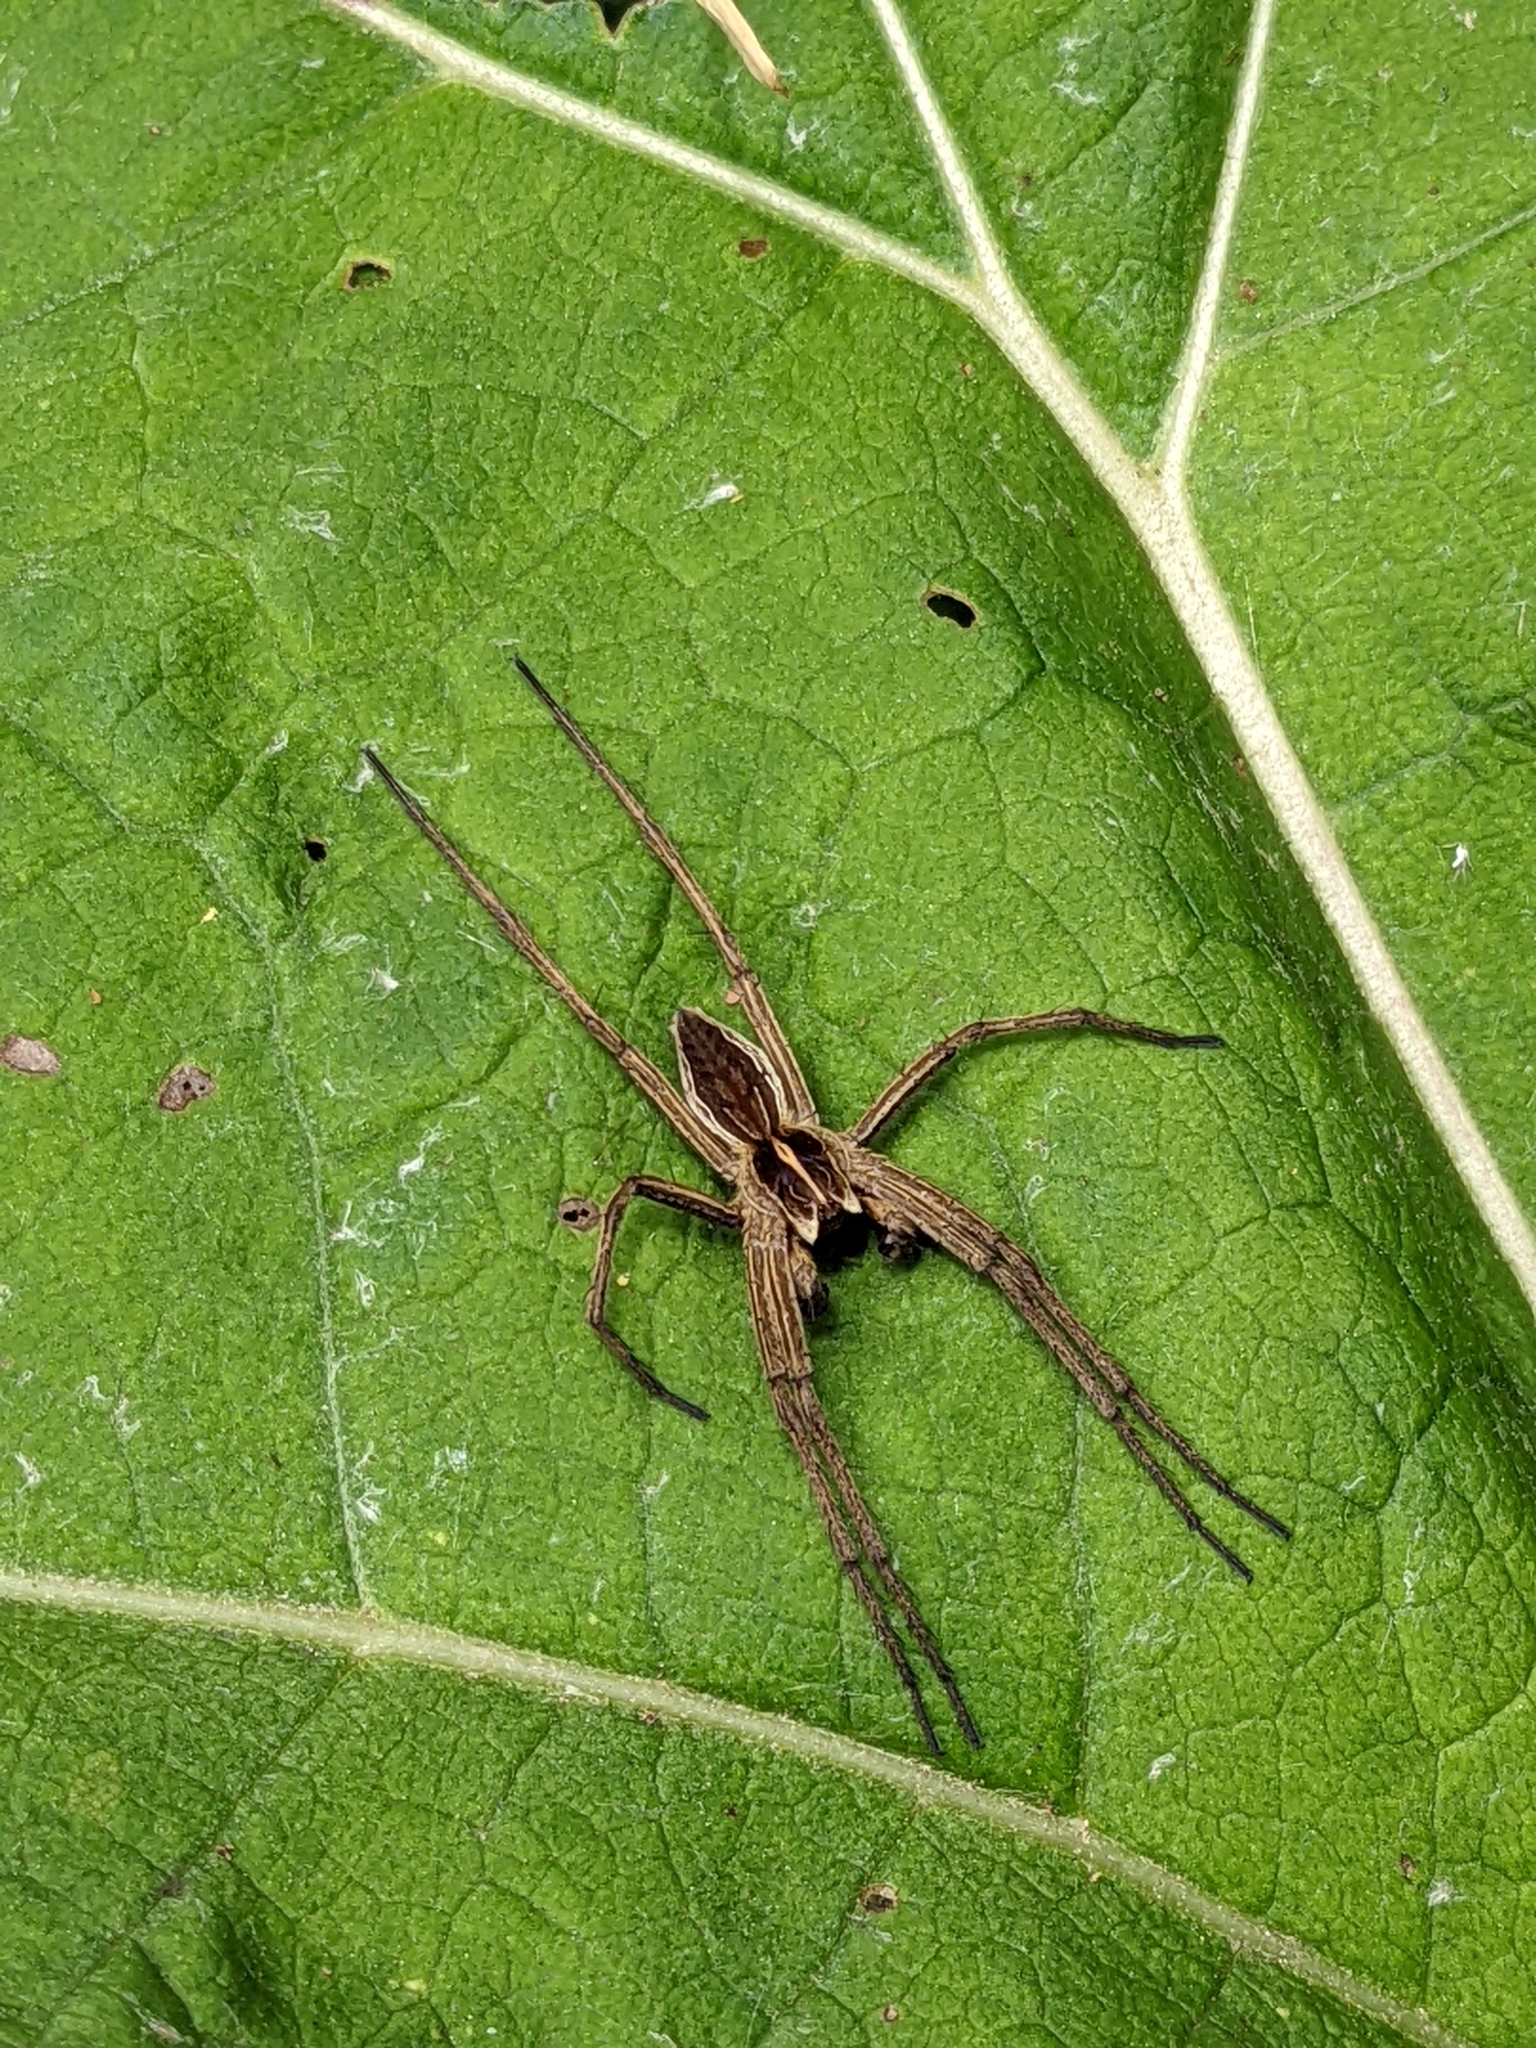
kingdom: Animalia
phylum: Arthropoda
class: Arachnida
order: Araneae
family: Pisauridae
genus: Pisaura
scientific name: Pisaura mirabilis
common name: Tent spider
